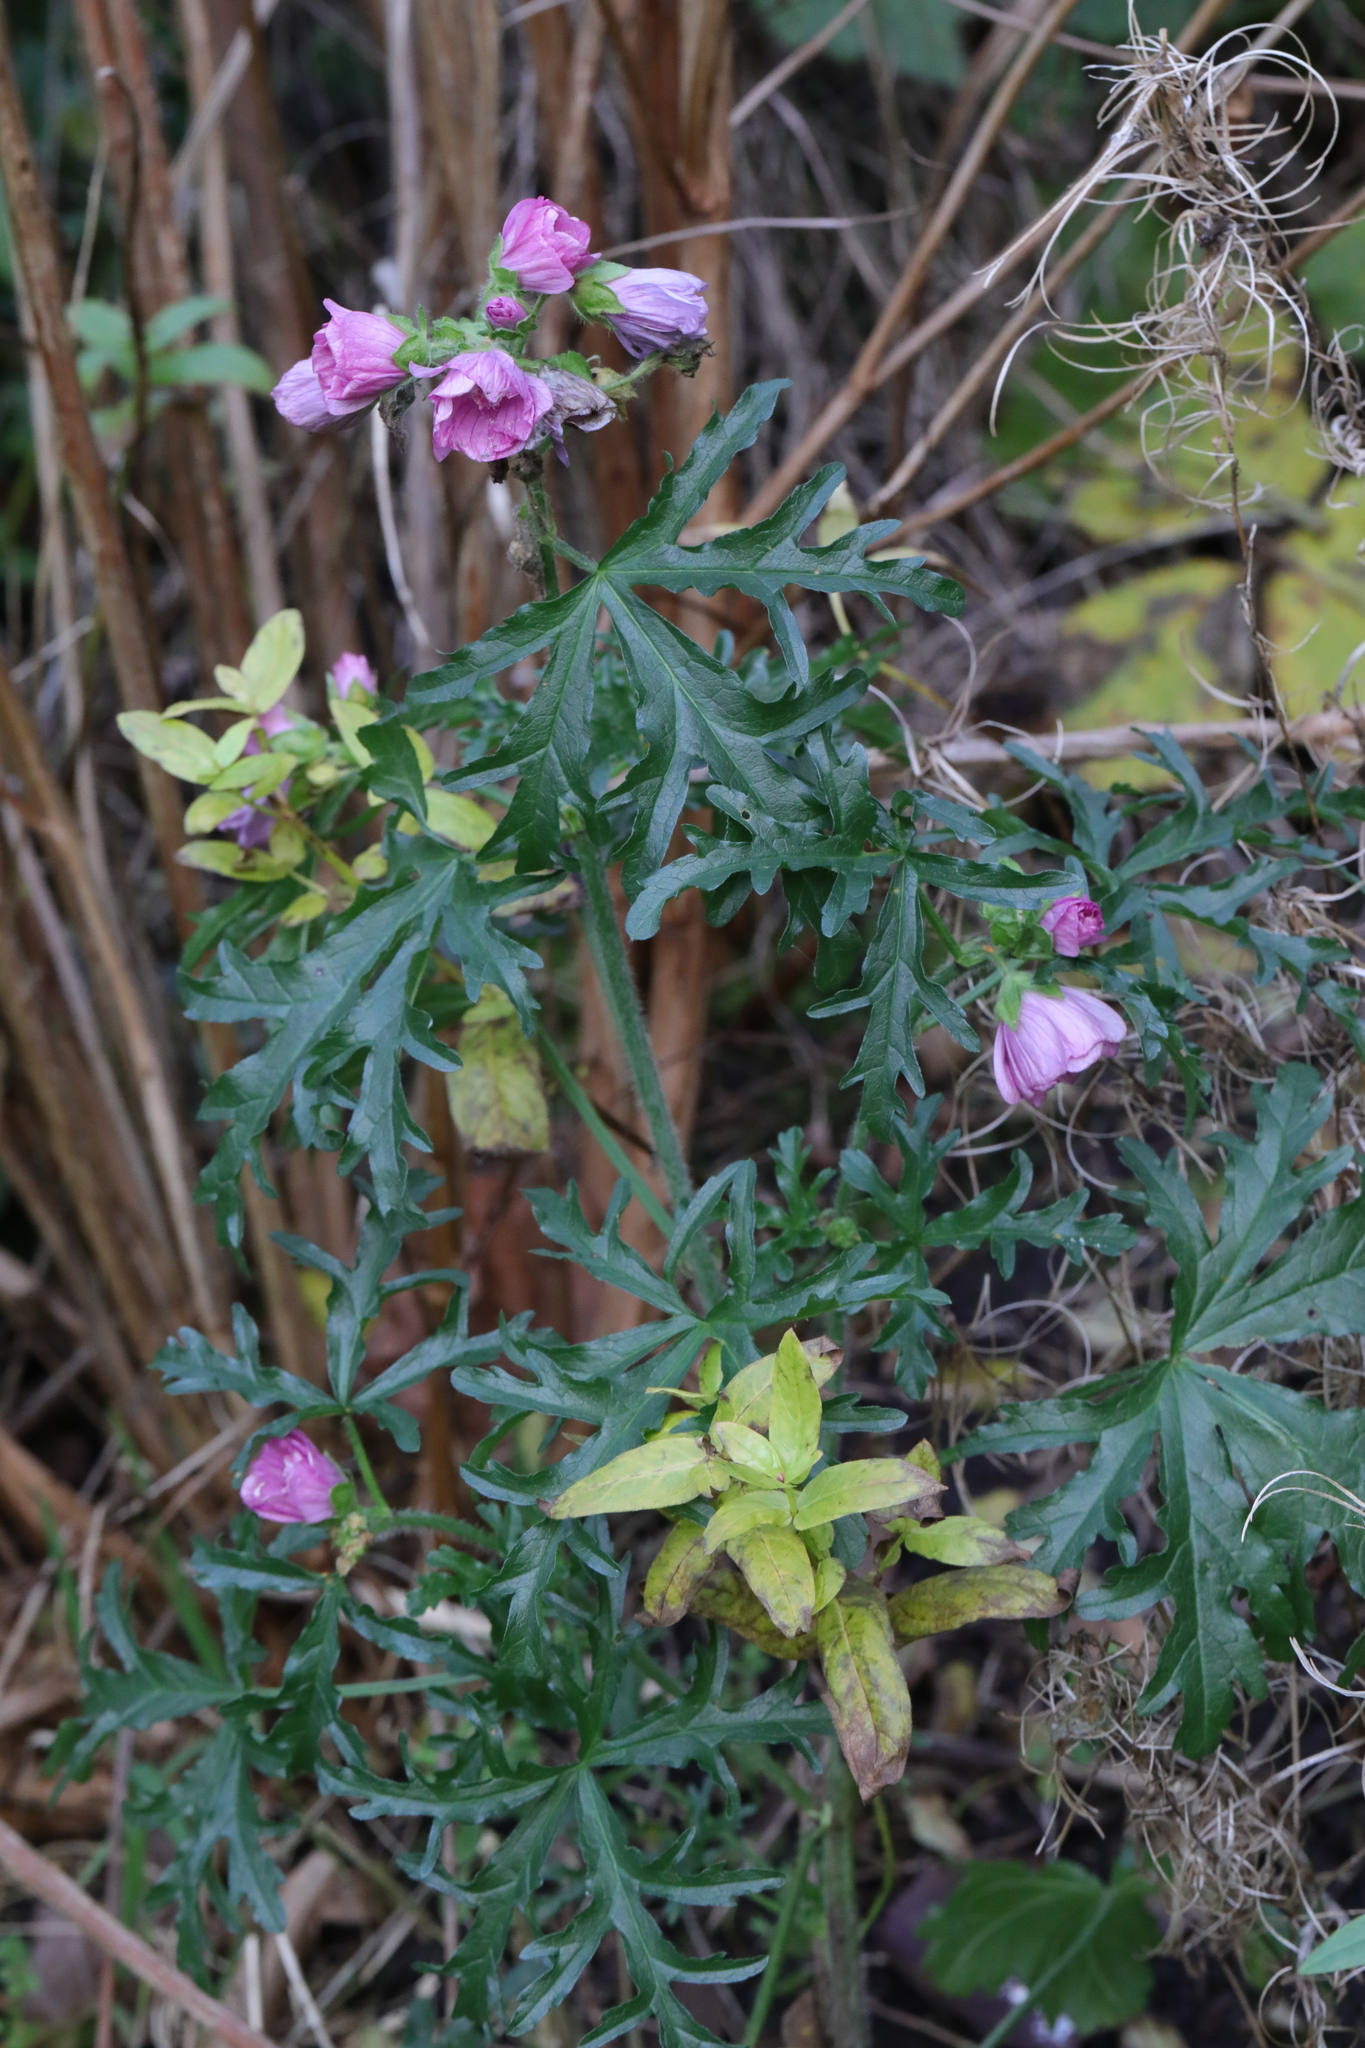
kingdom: Plantae
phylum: Tracheophyta
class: Magnoliopsida
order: Malvales
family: Malvaceae
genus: Malva
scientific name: Malva moschata
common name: Musk mallow
